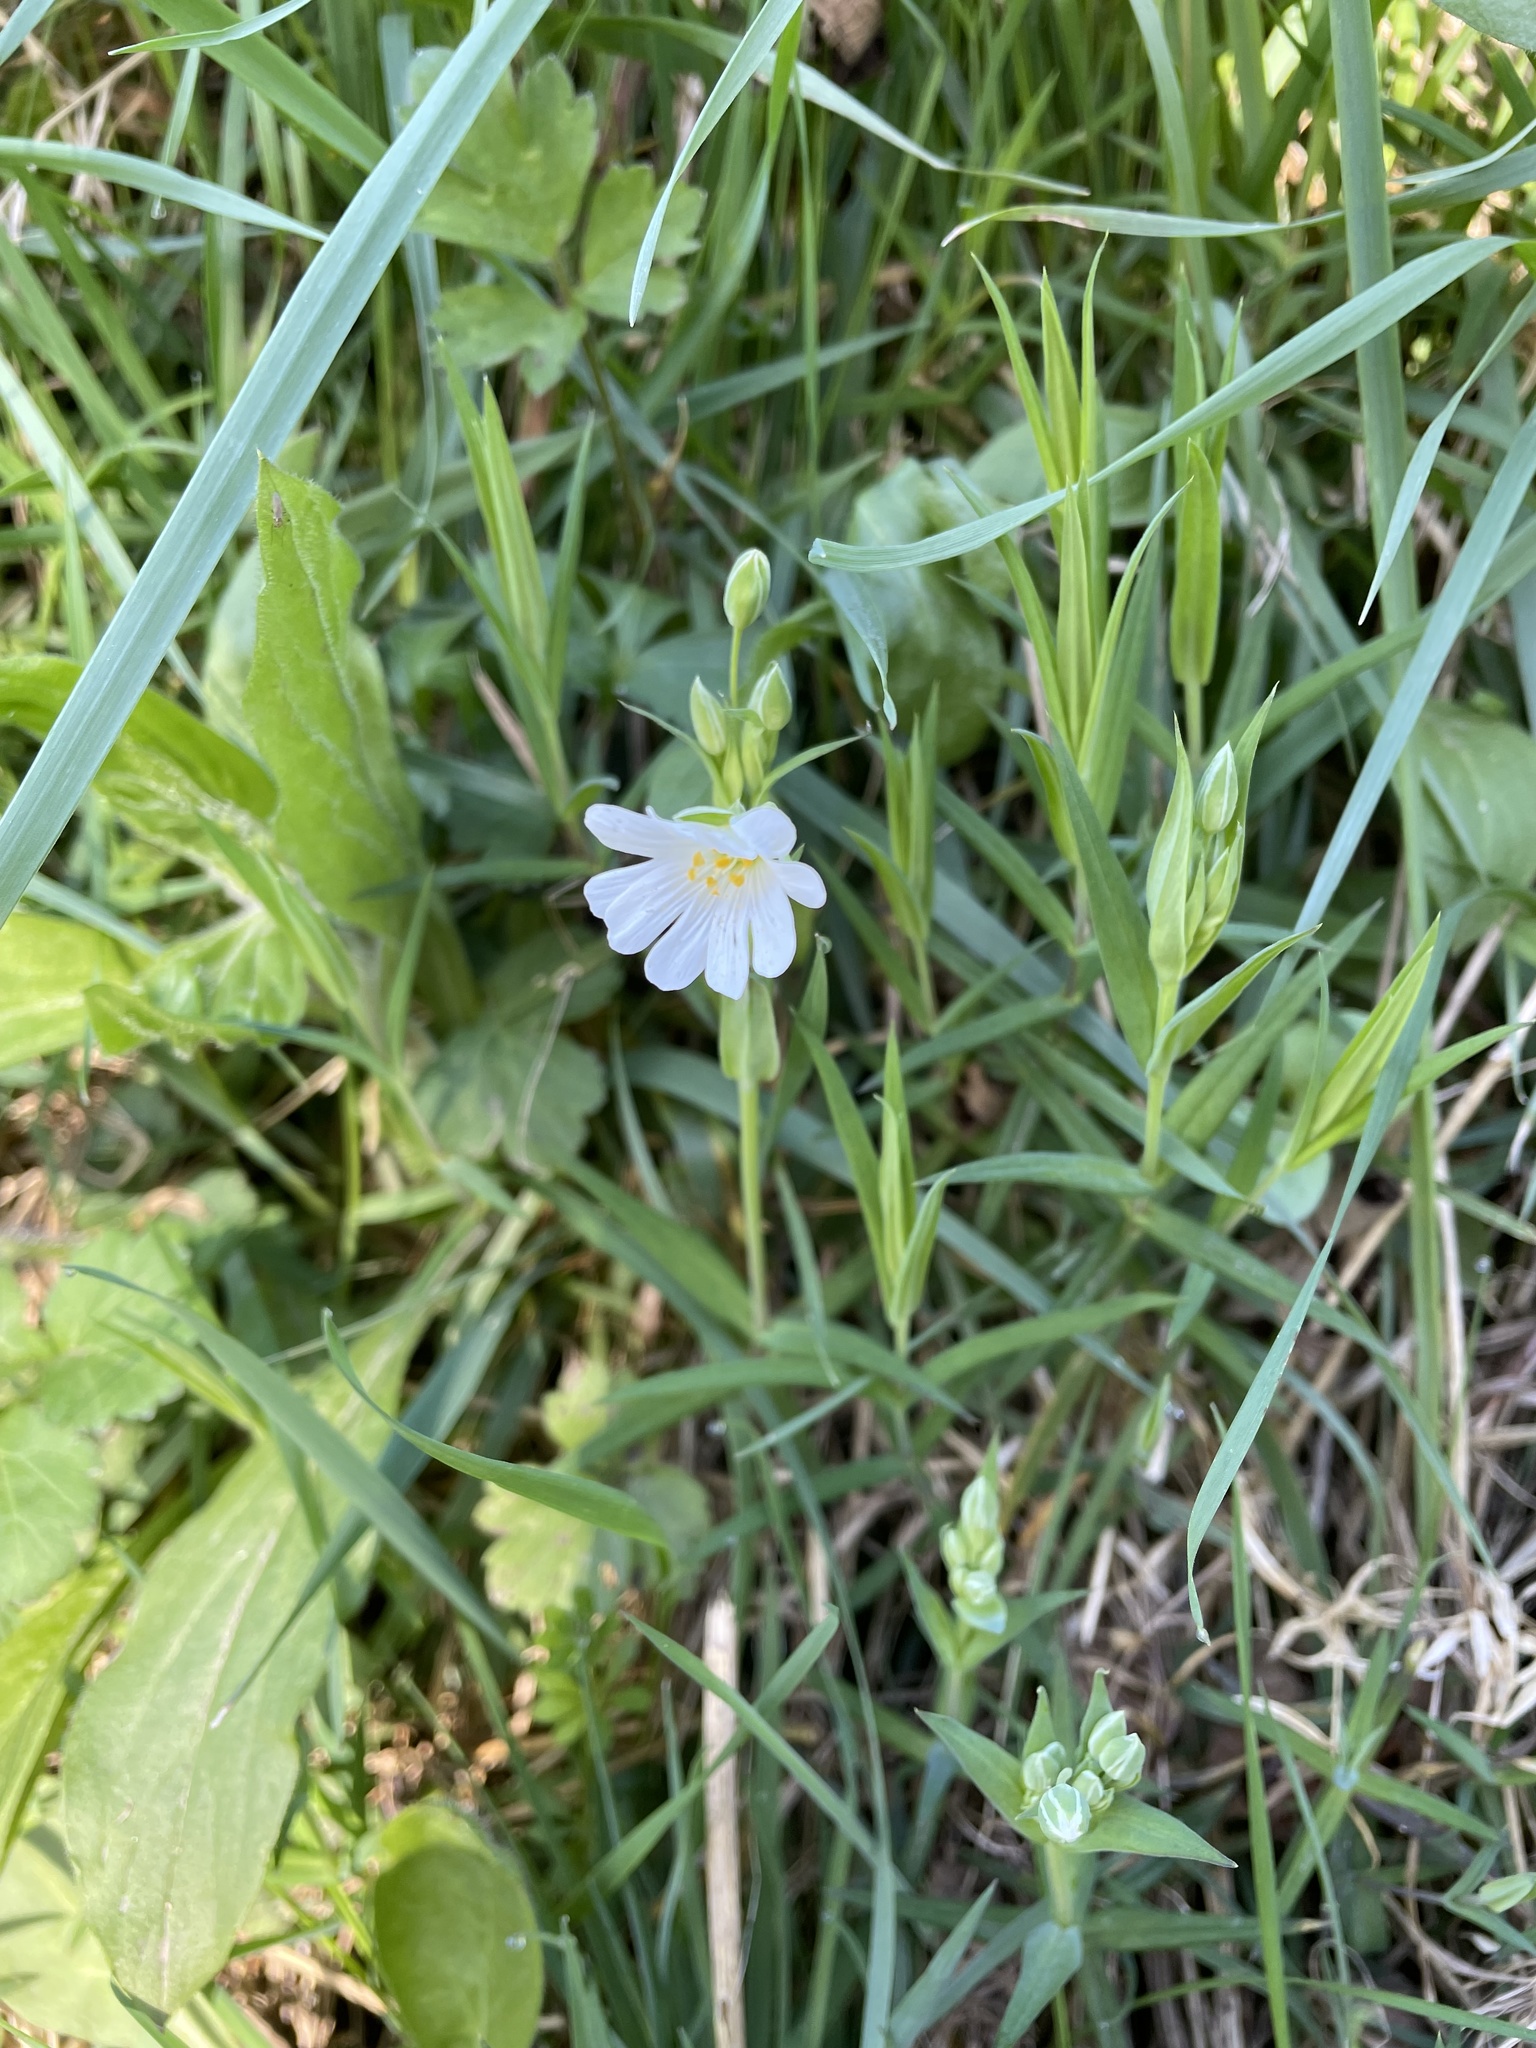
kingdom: Plantae
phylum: Tracheophyta
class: Magnoliopsida
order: Caryophyllales
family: Caryophyllaceae
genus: Rabelera
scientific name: Rabelera holostea
